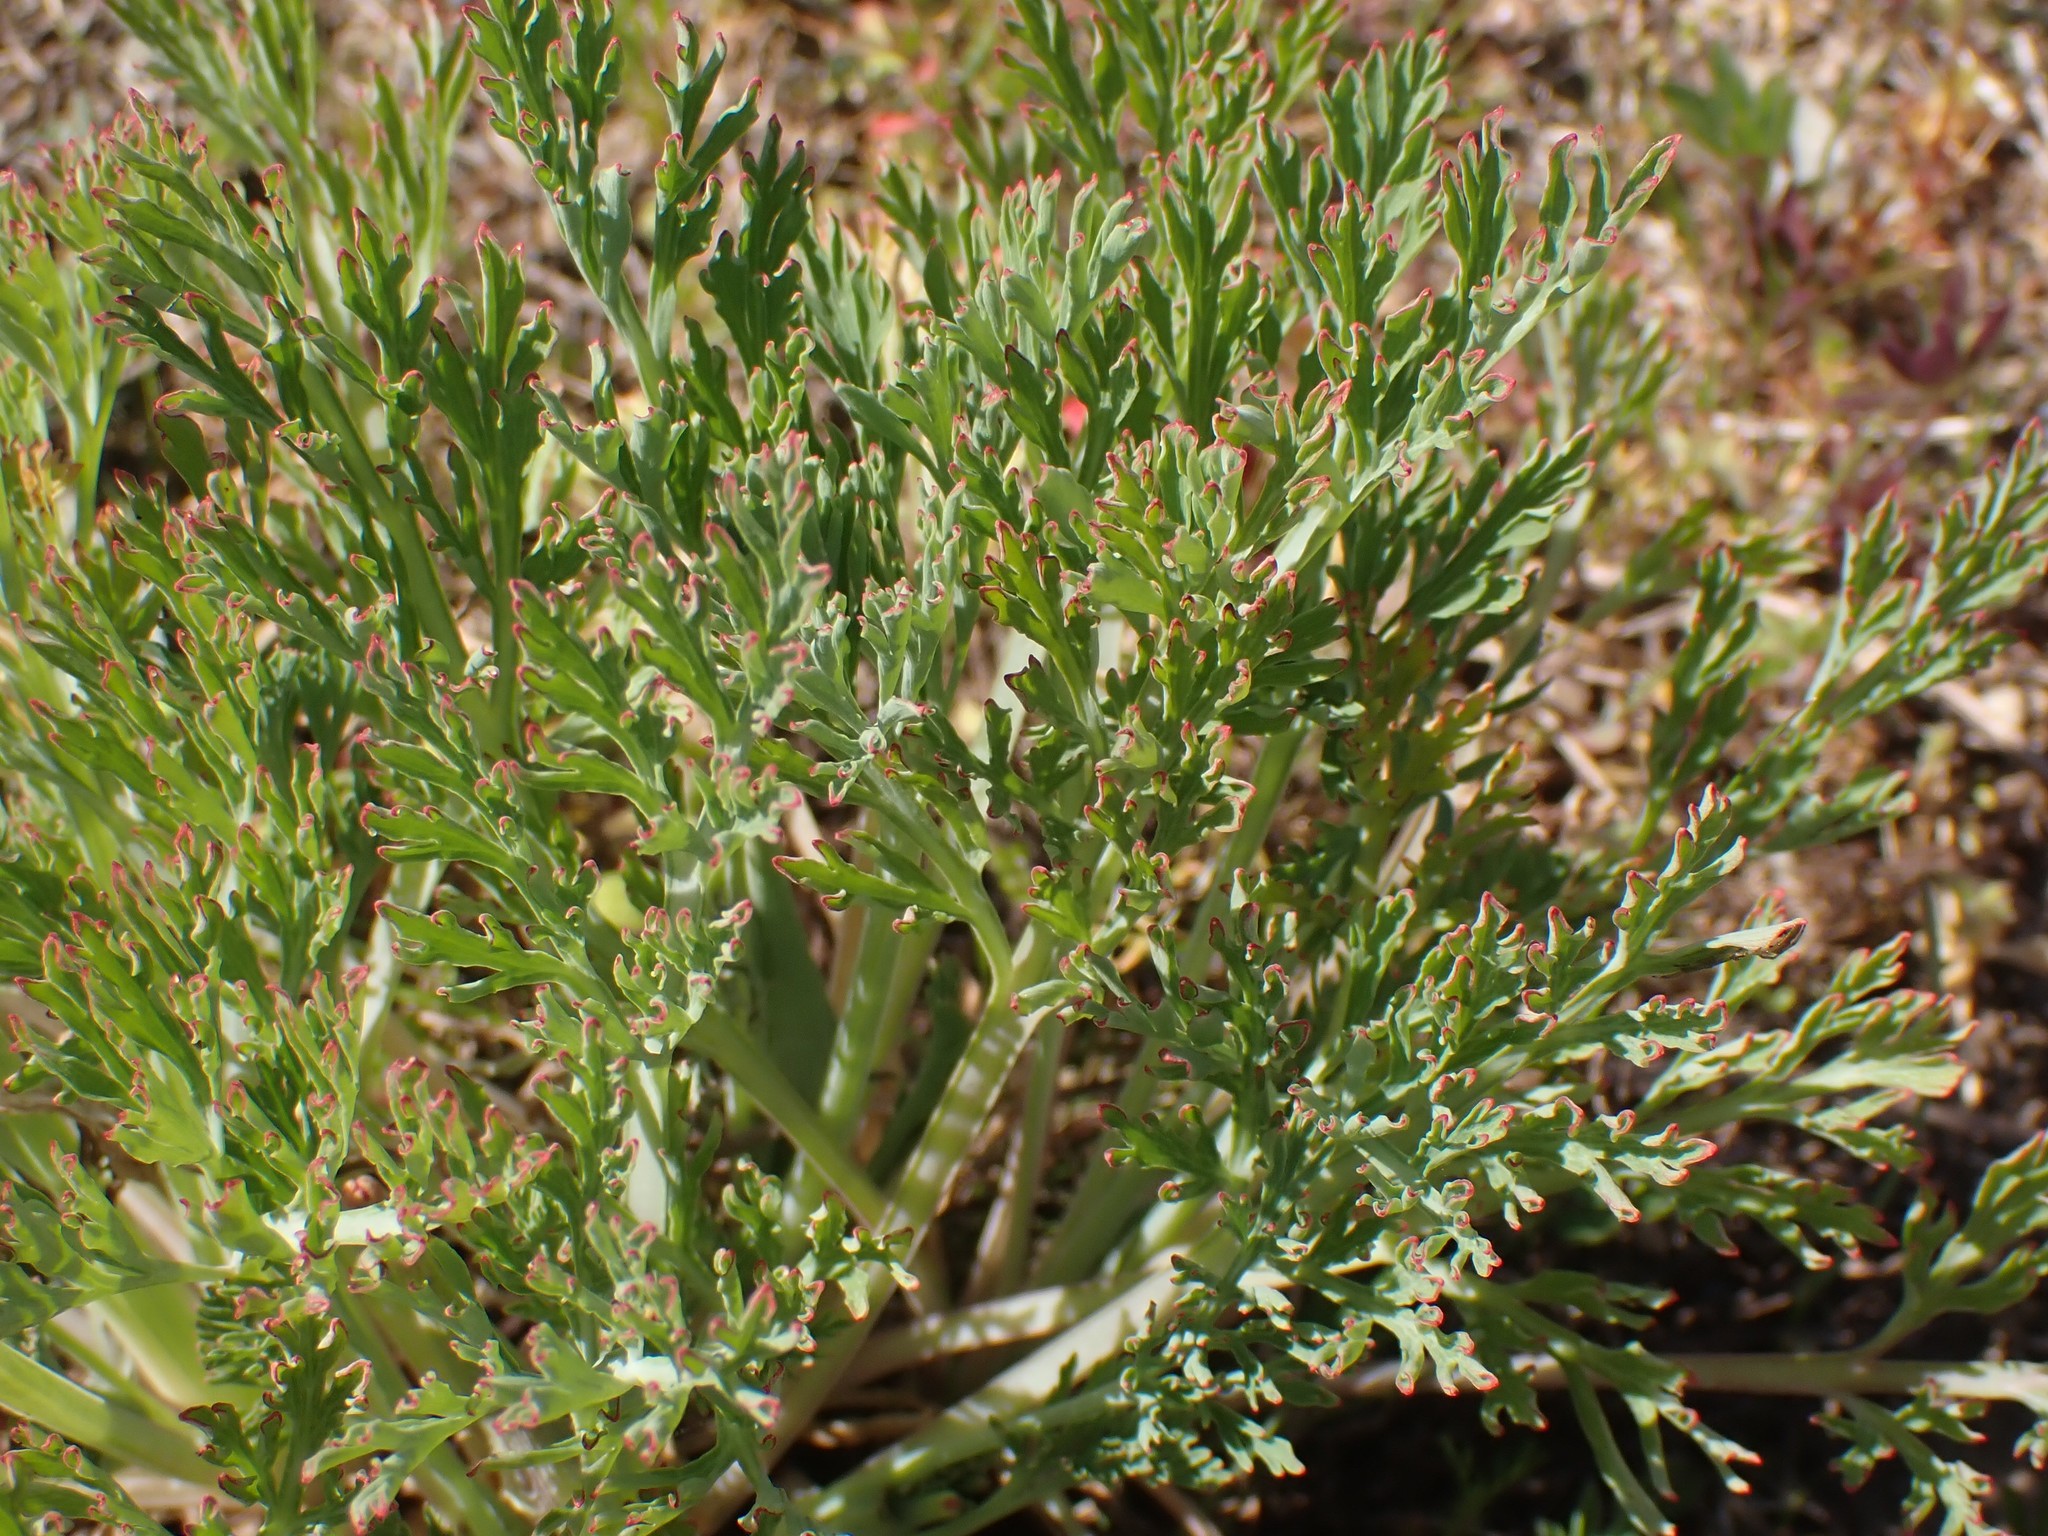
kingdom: Plantae
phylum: Tracheophyta
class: Magnoliopsida
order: Ranunculales
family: Papaveraceae
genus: Eschscholzia
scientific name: Eschscholzia californica
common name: California poppy
